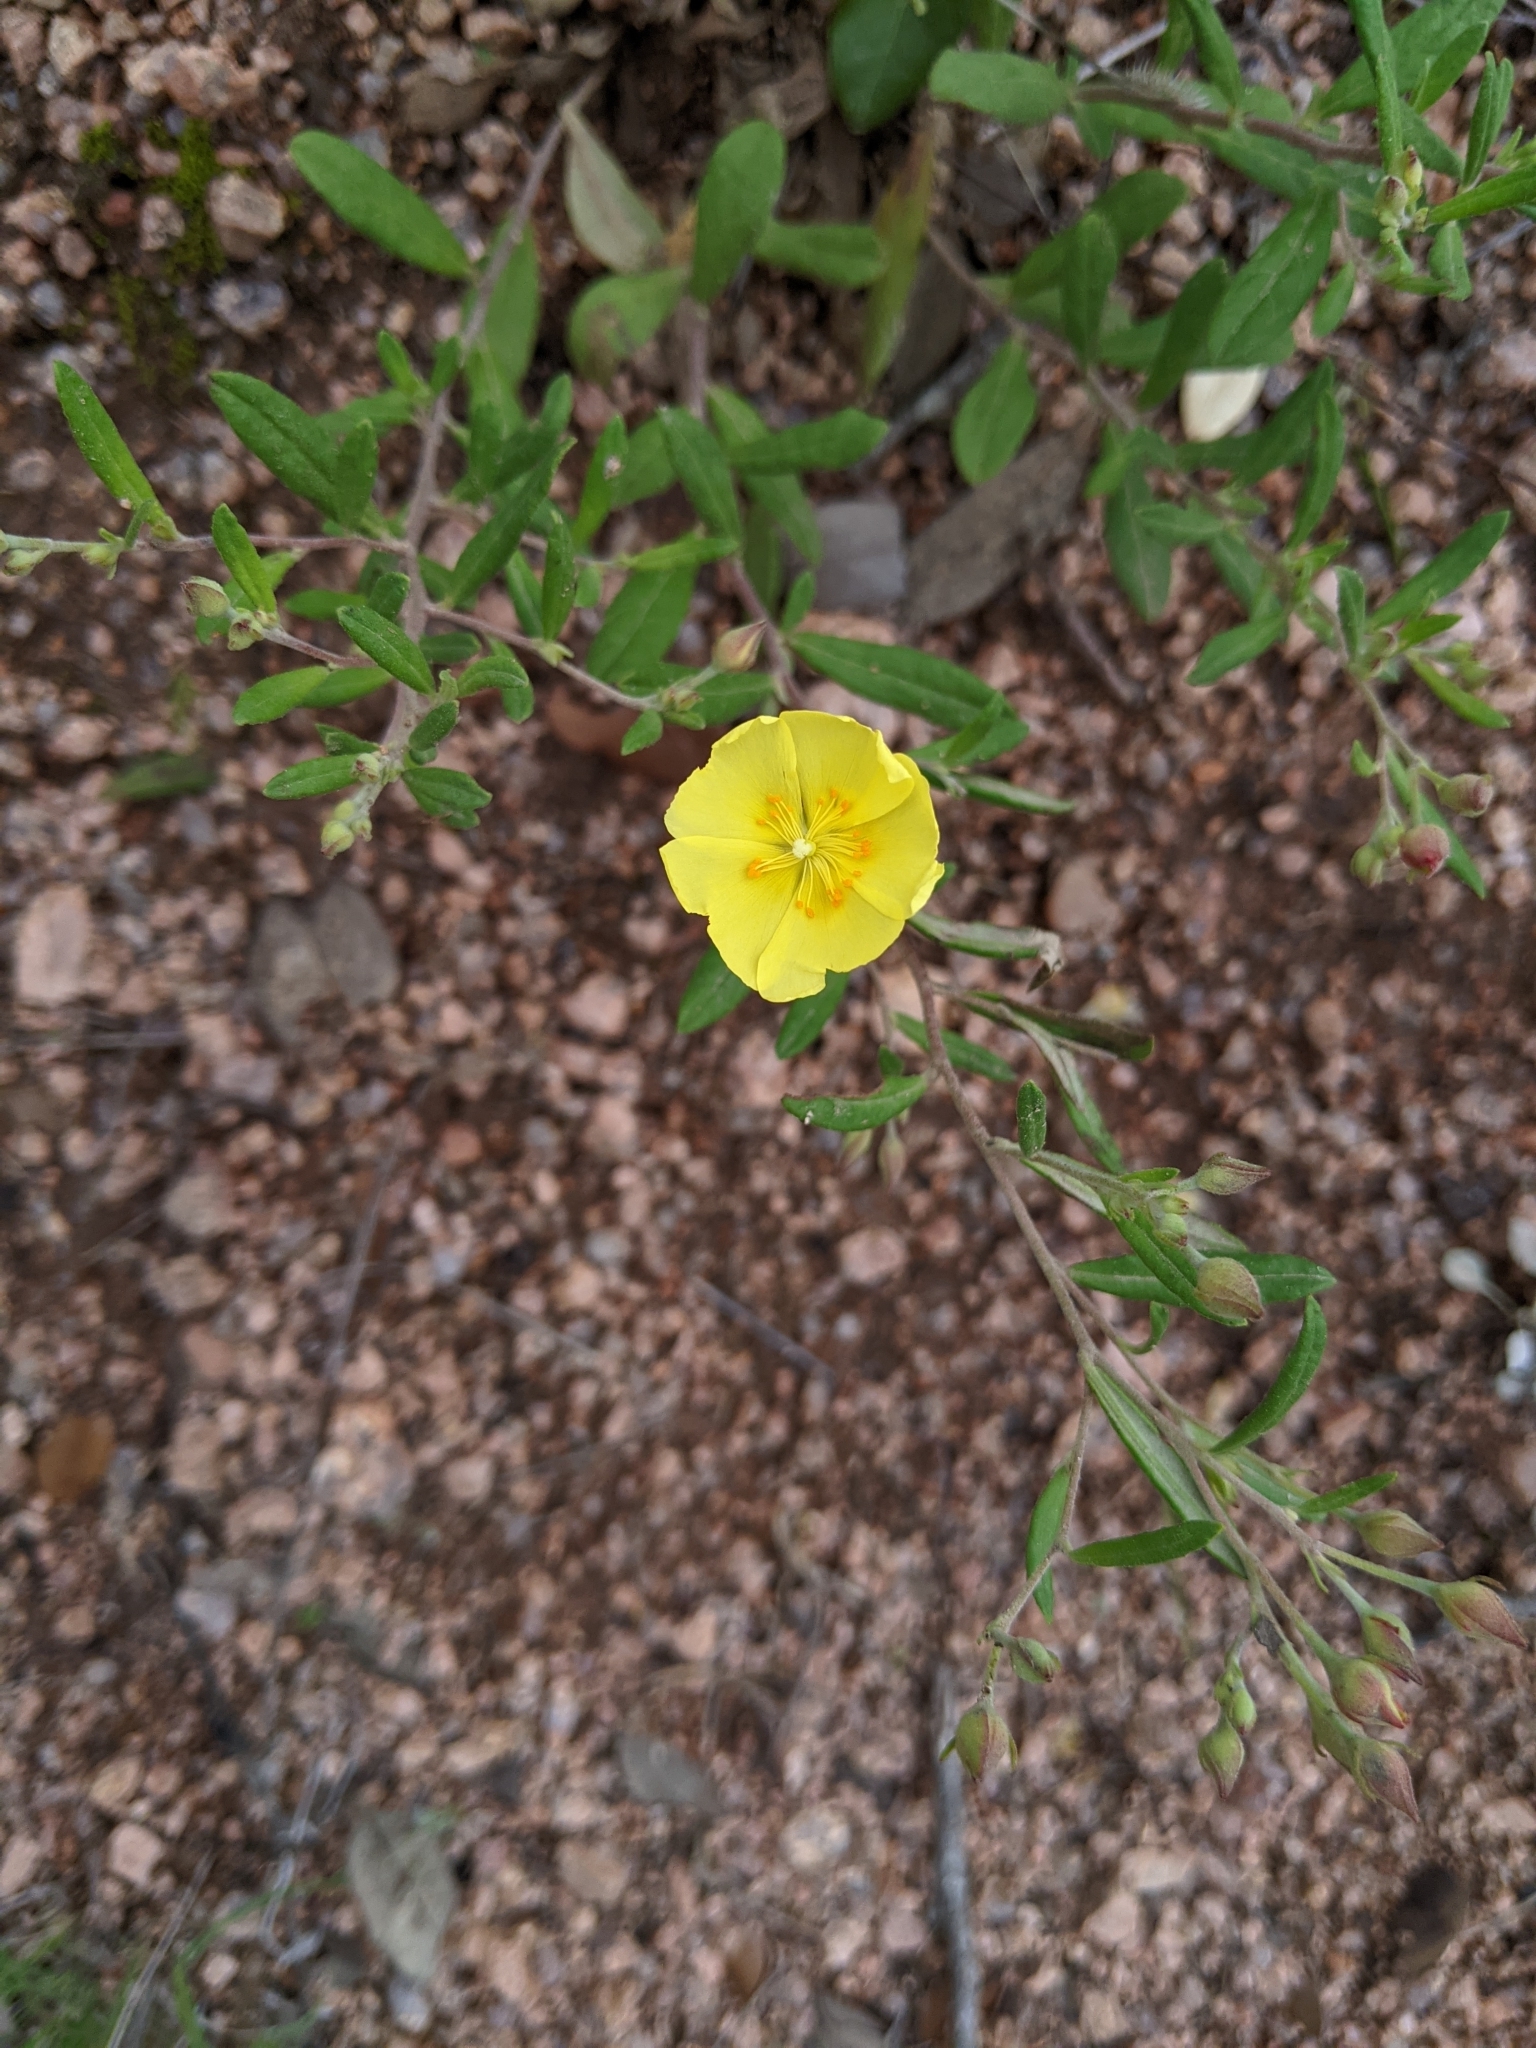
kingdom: Plantae
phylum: Tracheophyta
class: Magnoliopsida
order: Malvales
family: Cistaceae
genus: Crocanthemum
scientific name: Crocanthemum georgianum
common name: Georgia frostweed
